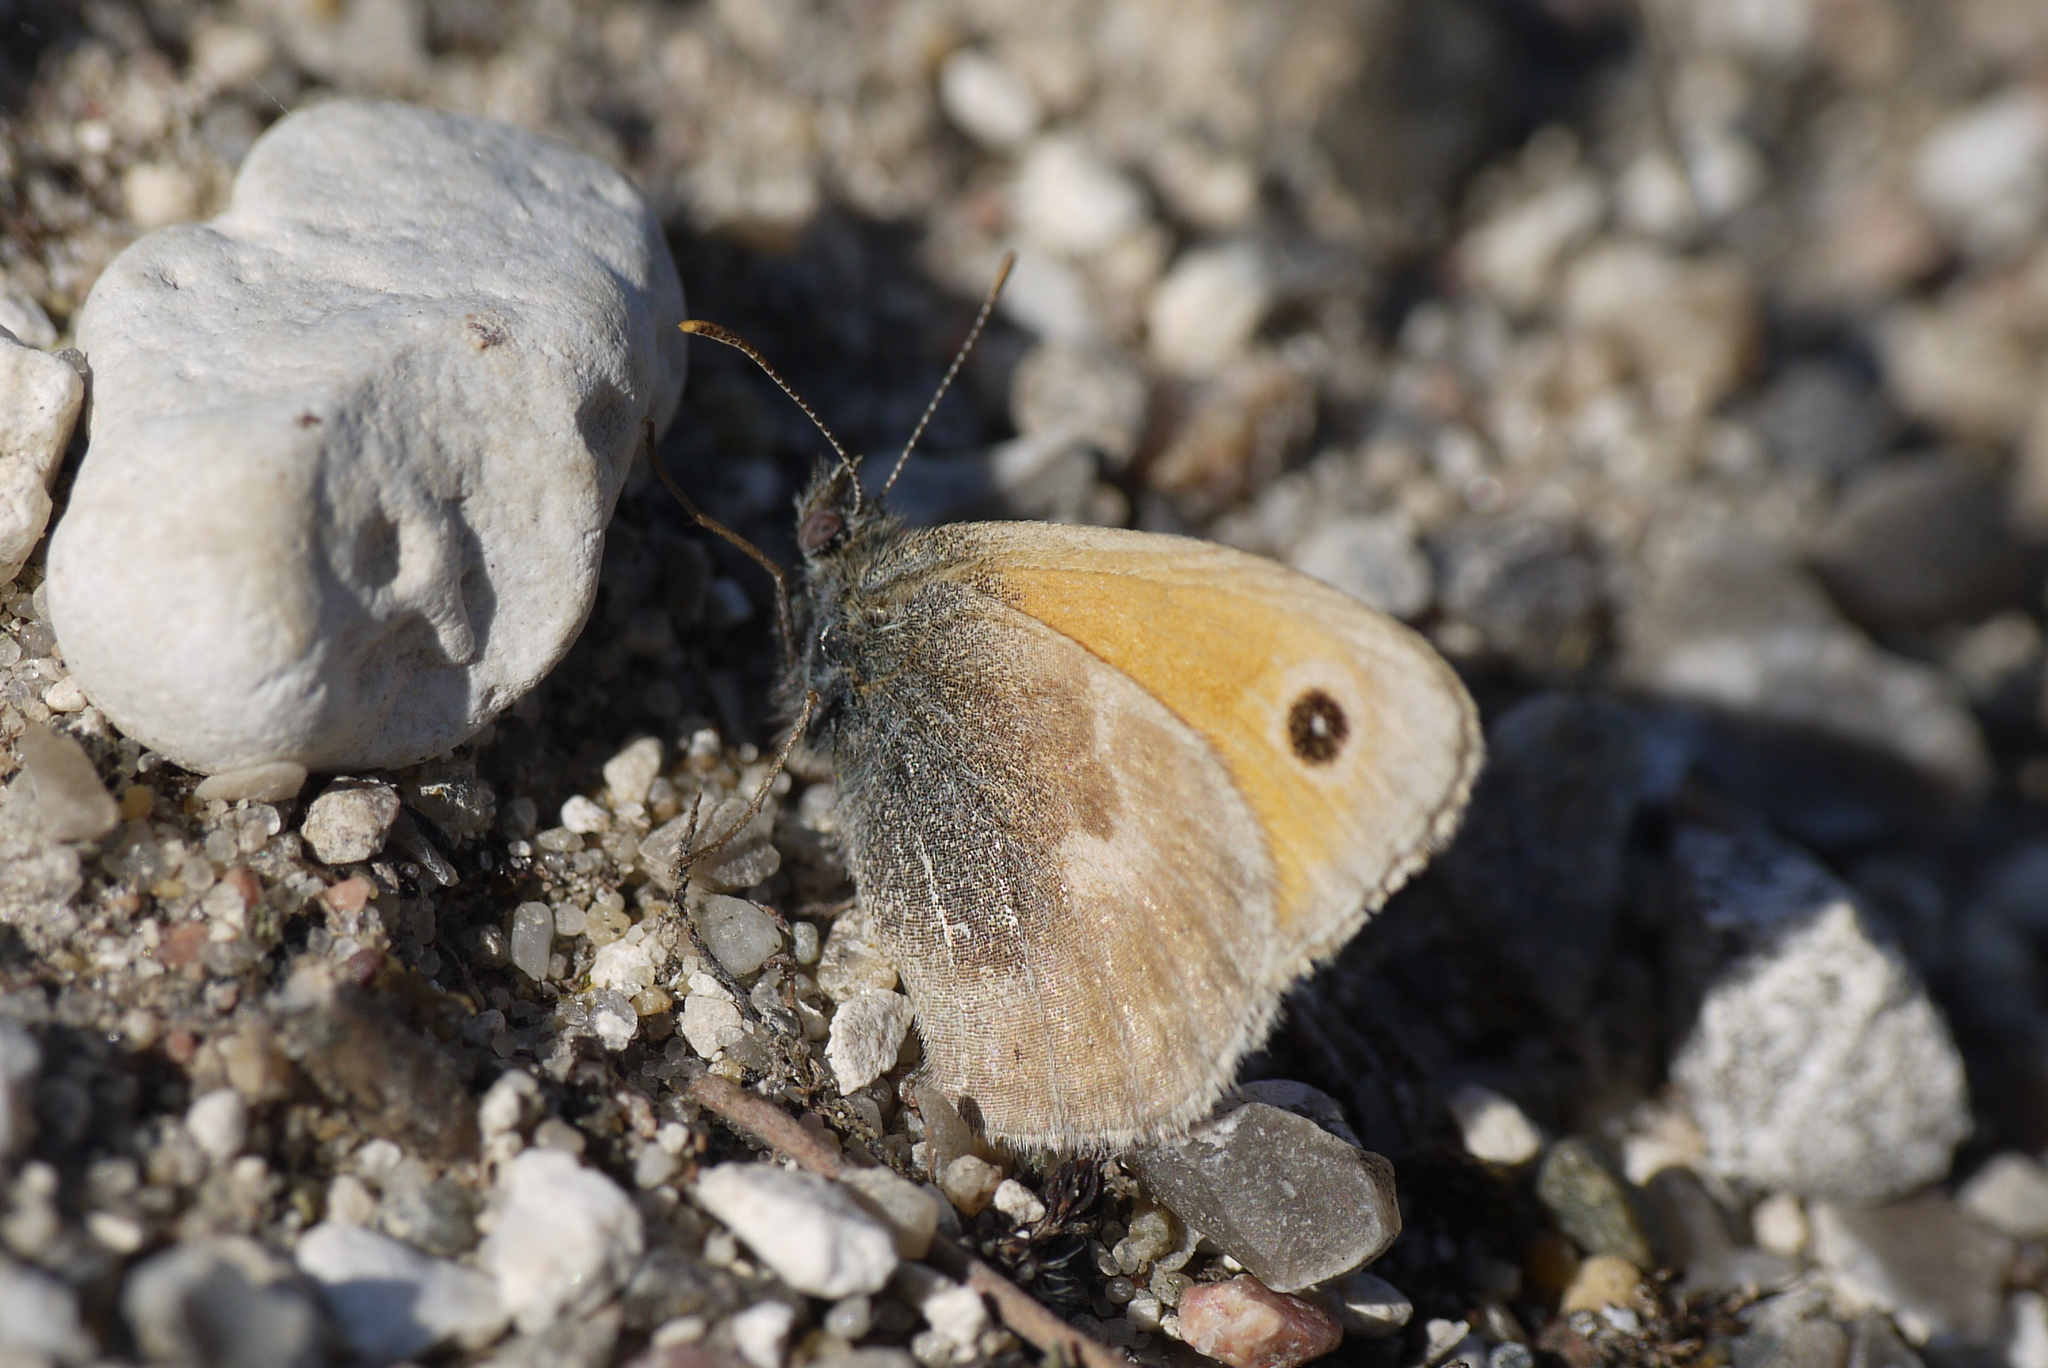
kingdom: Animalia
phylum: Arthropoda
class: Insecta
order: Lepidoptera
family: Nymphalidae
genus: Coenonympha
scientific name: Coenonympha pamphilus
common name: Small heath
